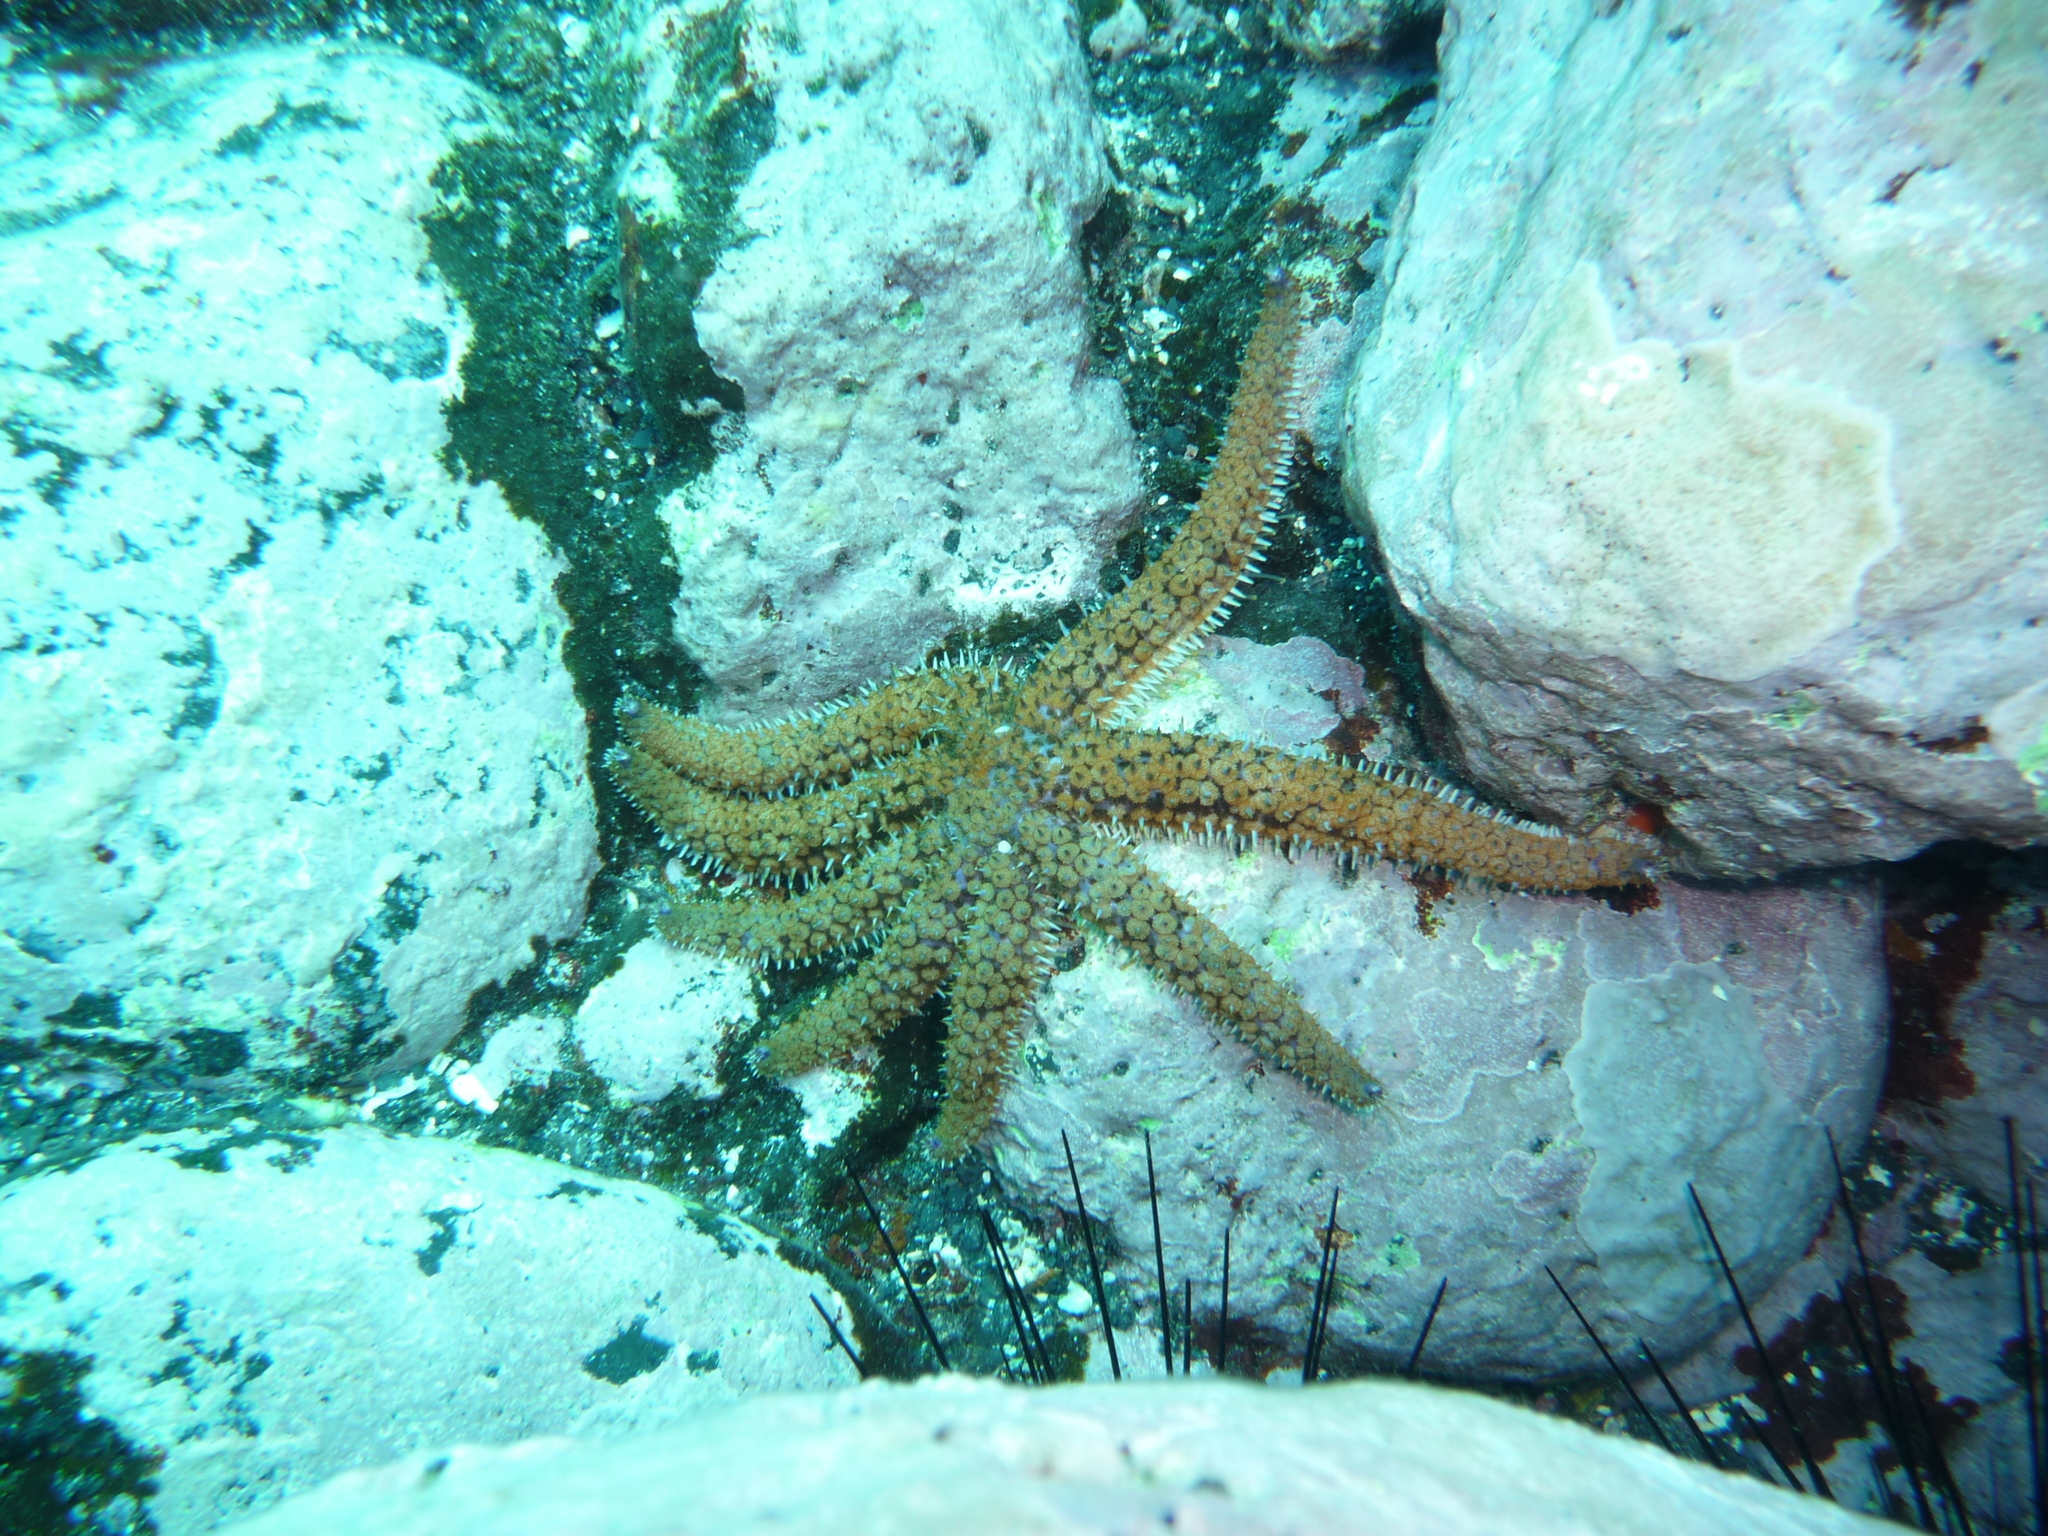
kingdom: Animalia
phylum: Echinodermata
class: Asteroidea
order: Forcipulatida
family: Asteriidae
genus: Coscinasterias
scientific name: Coscinasterias tenuispina
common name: Blue spiny starfish
